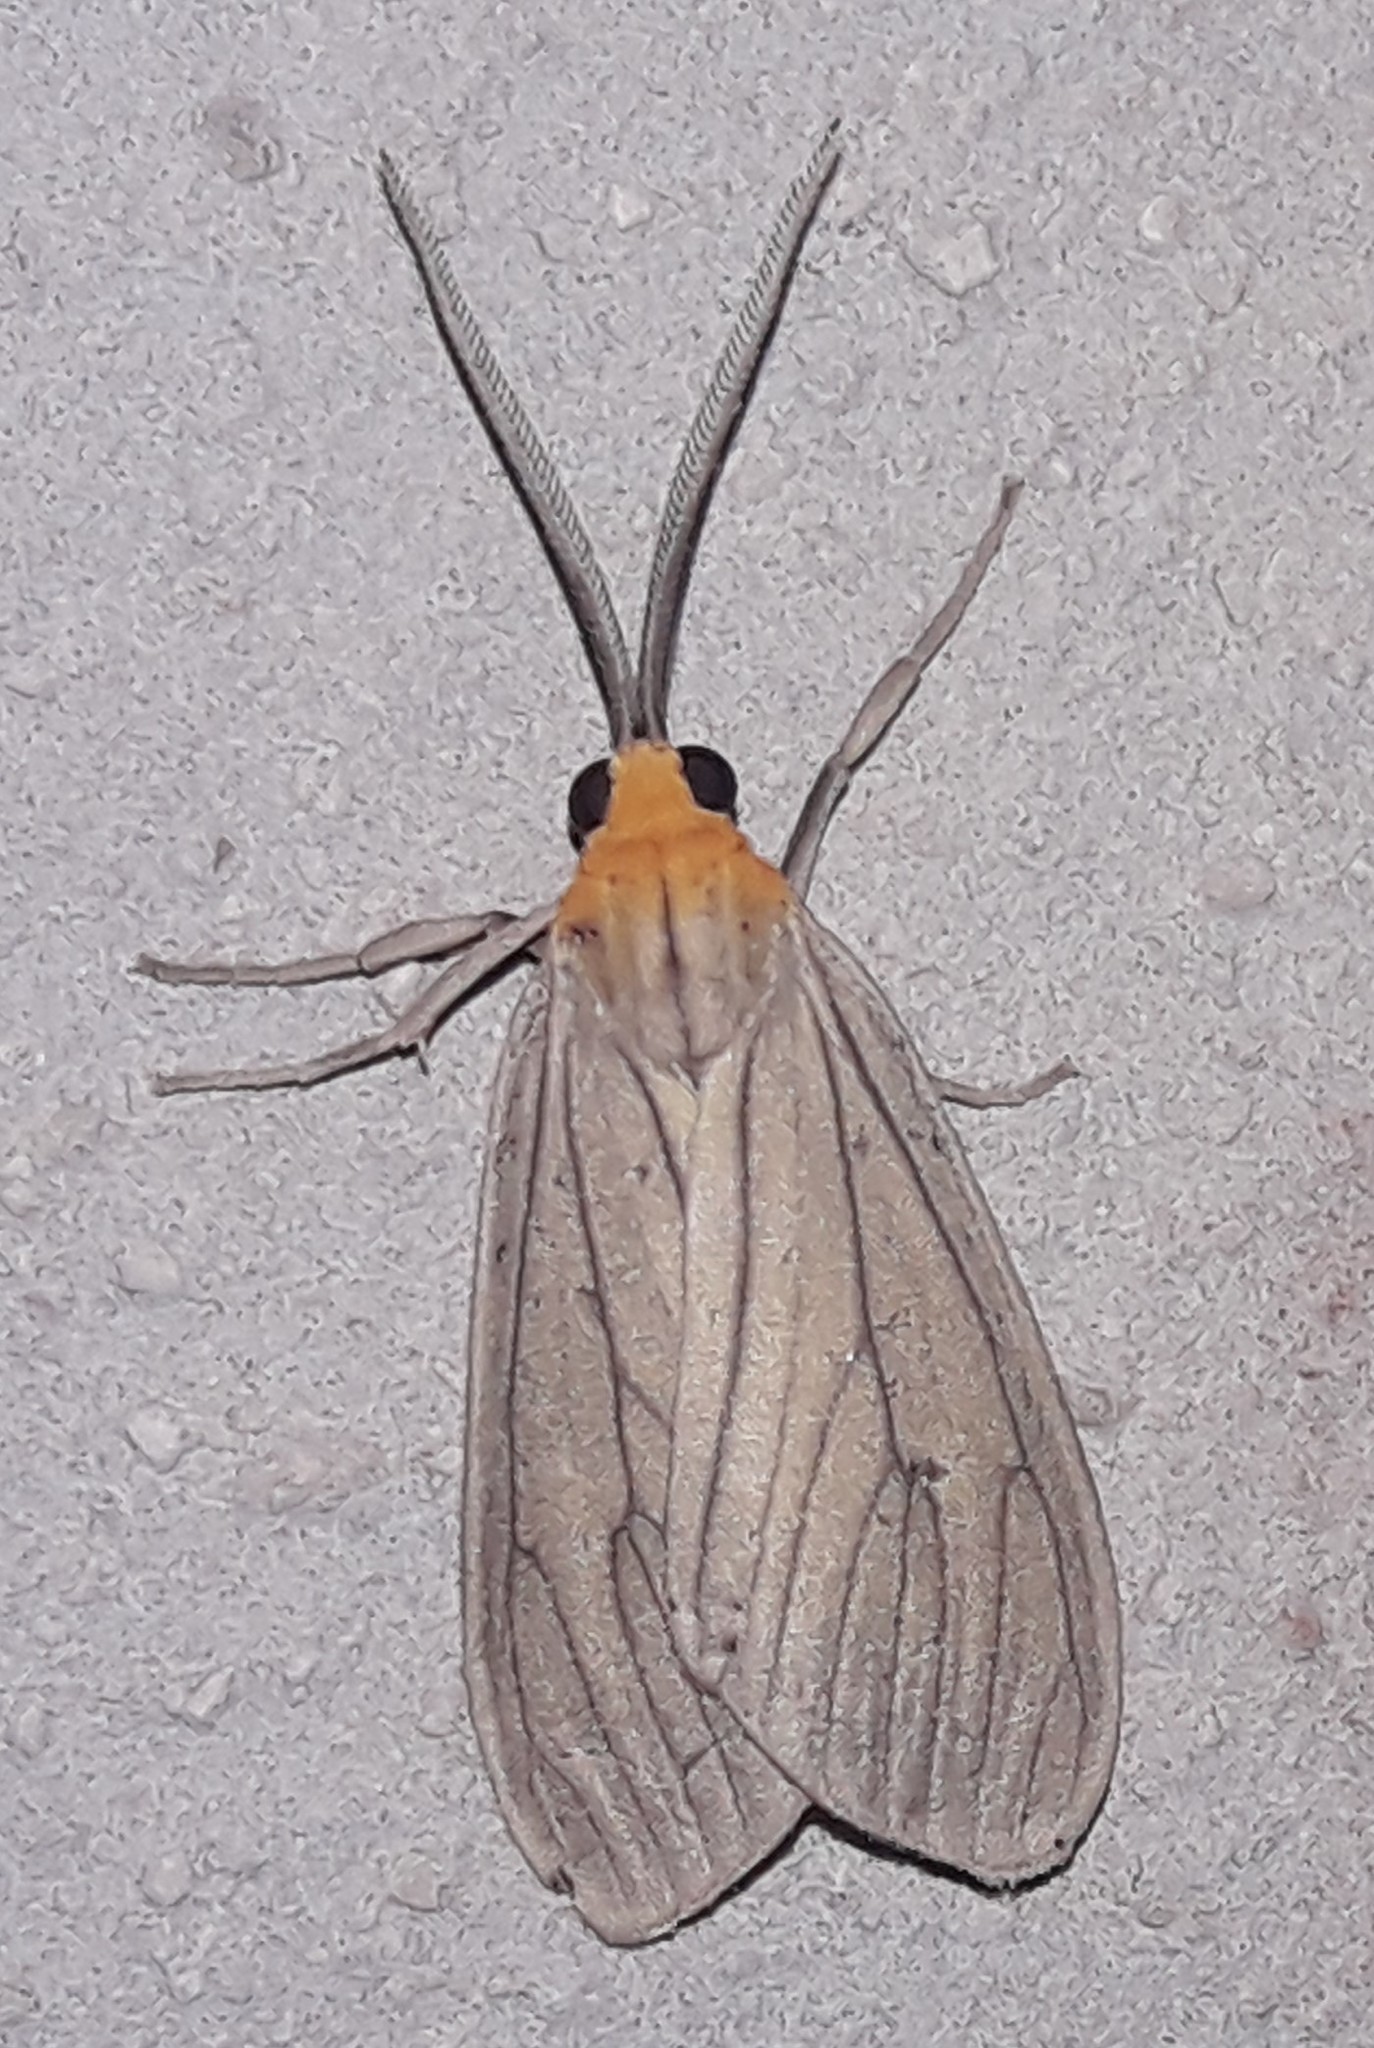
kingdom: Animalia
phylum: Arthropoda
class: Insecta
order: Lepidoptera
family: Erebidae
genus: Opharus
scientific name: Opharus rudis
